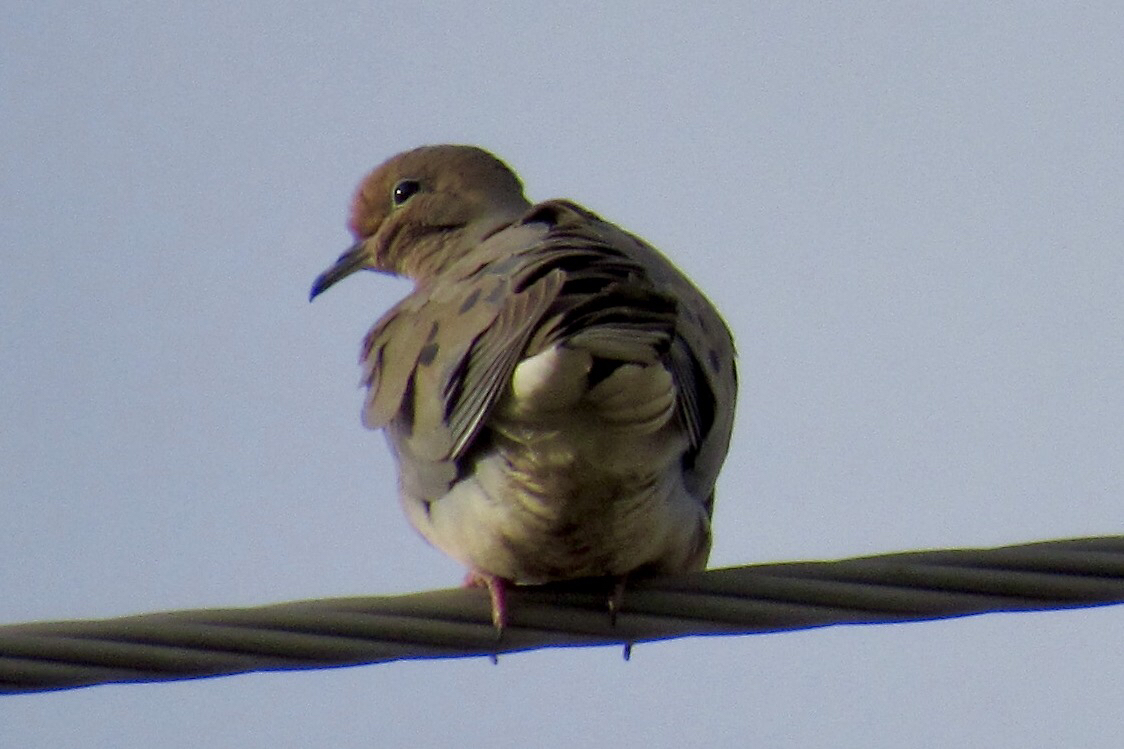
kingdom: Animalia
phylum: Chordata
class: Aves
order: Columbiformes
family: Columbidae
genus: Zenaida
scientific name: Zenaida macroura
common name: Mourning dove
